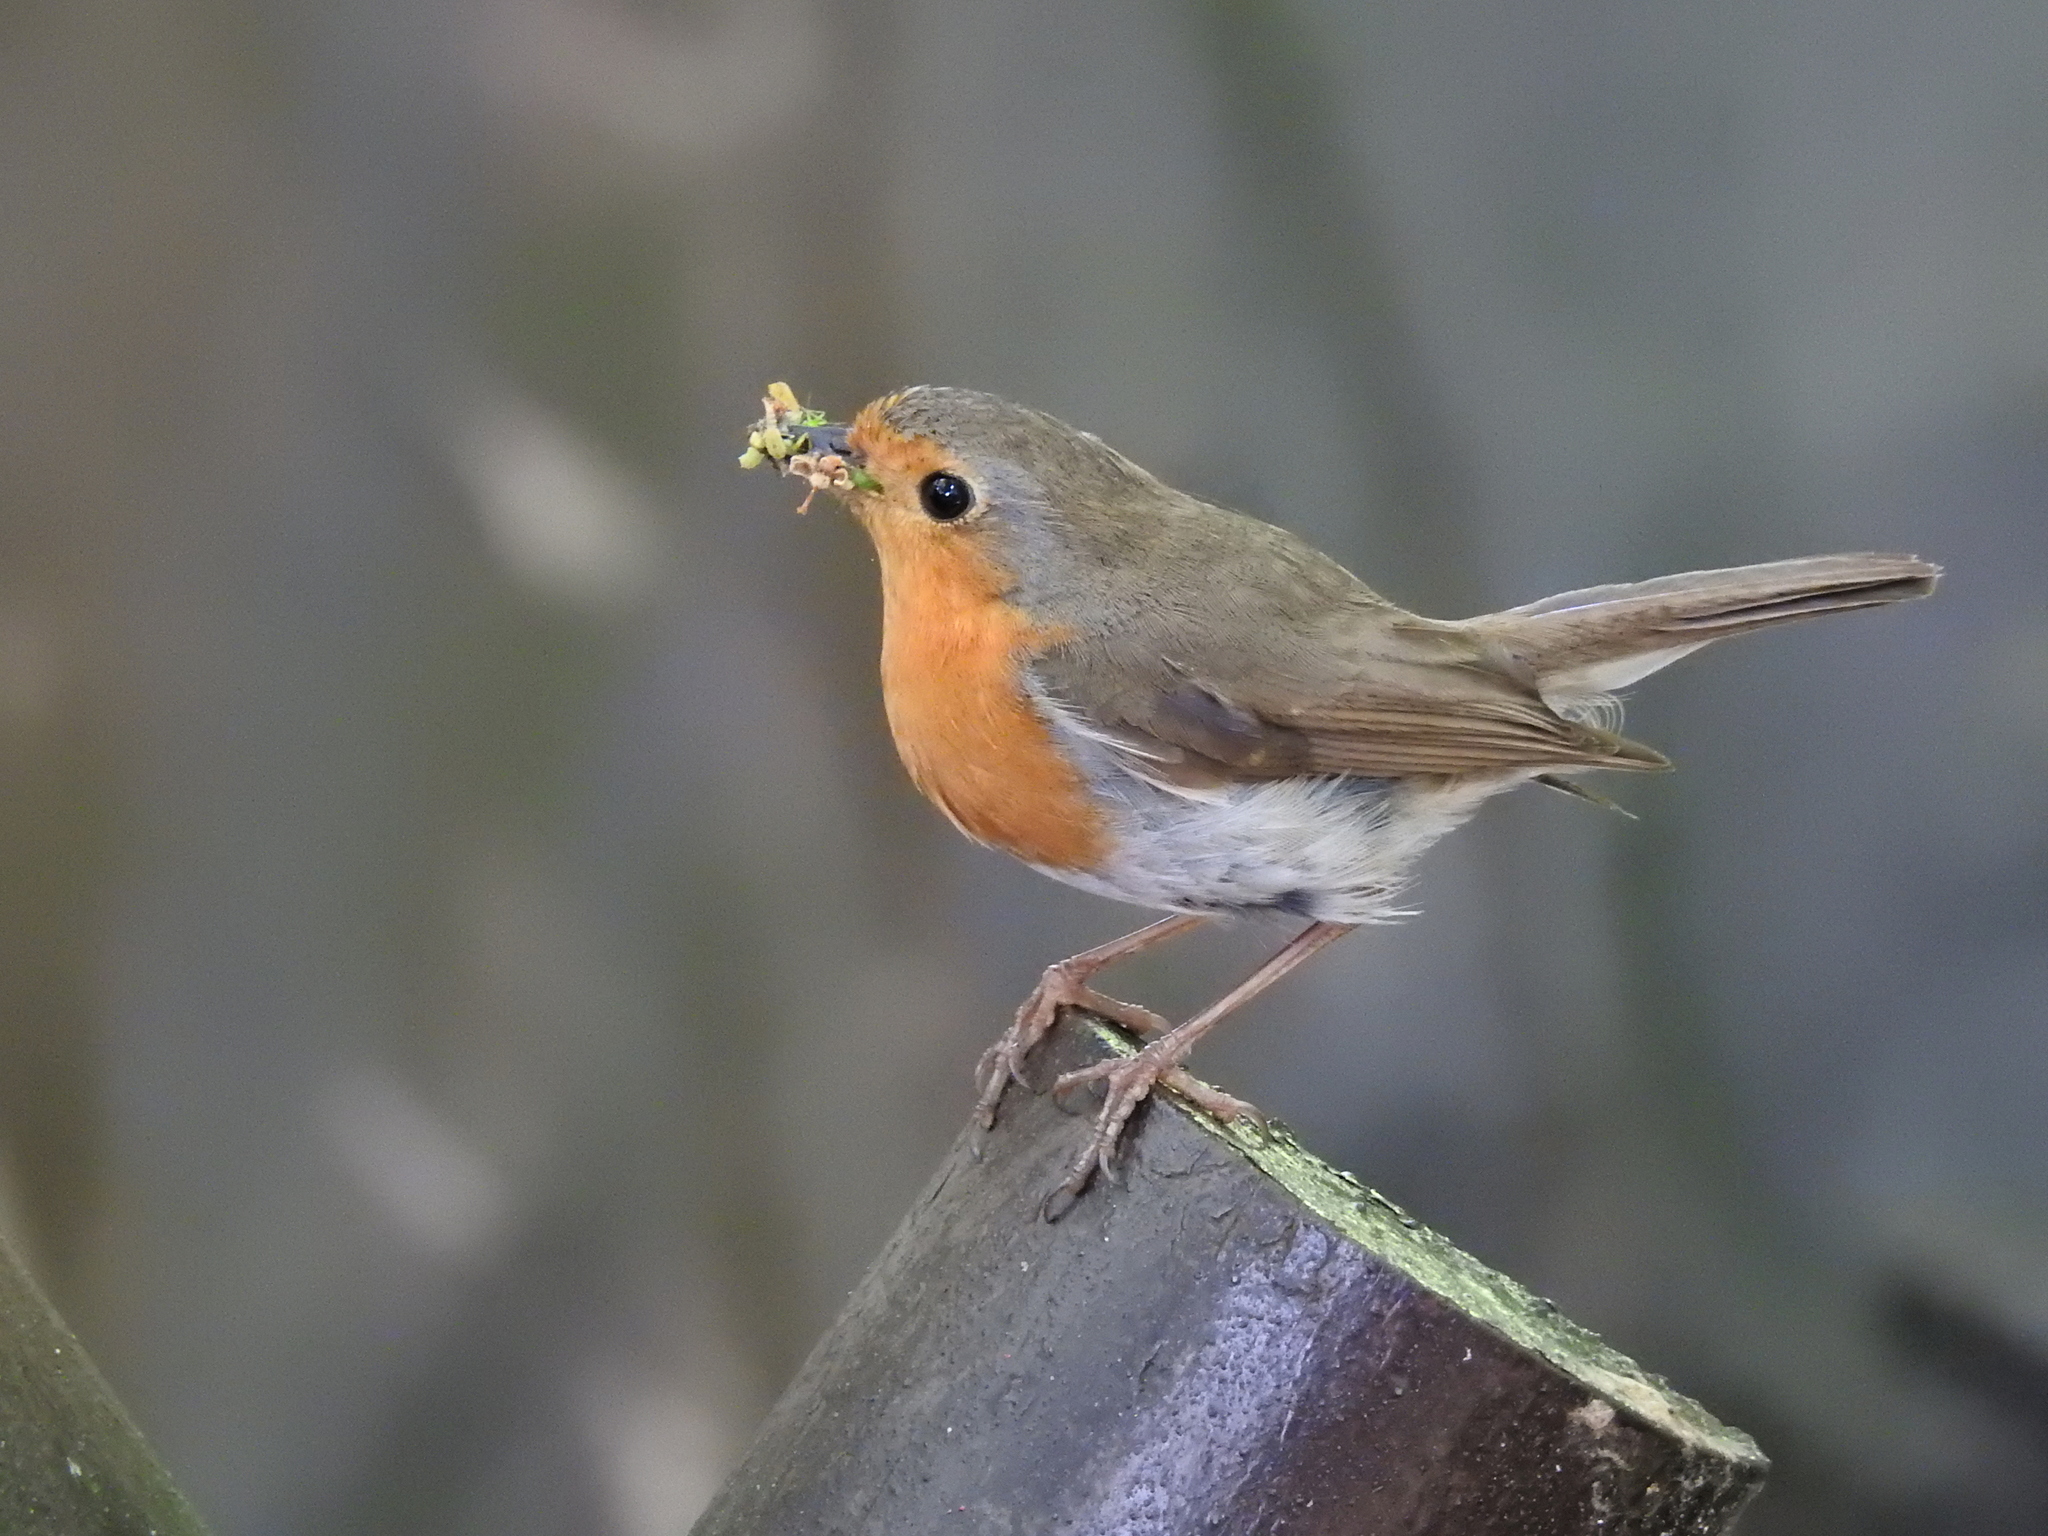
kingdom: Animalia
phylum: Chordata
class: Aves
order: Passeriformes
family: Muscicapidae
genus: Erithacus
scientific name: Erithacus rubecula
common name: European robin
